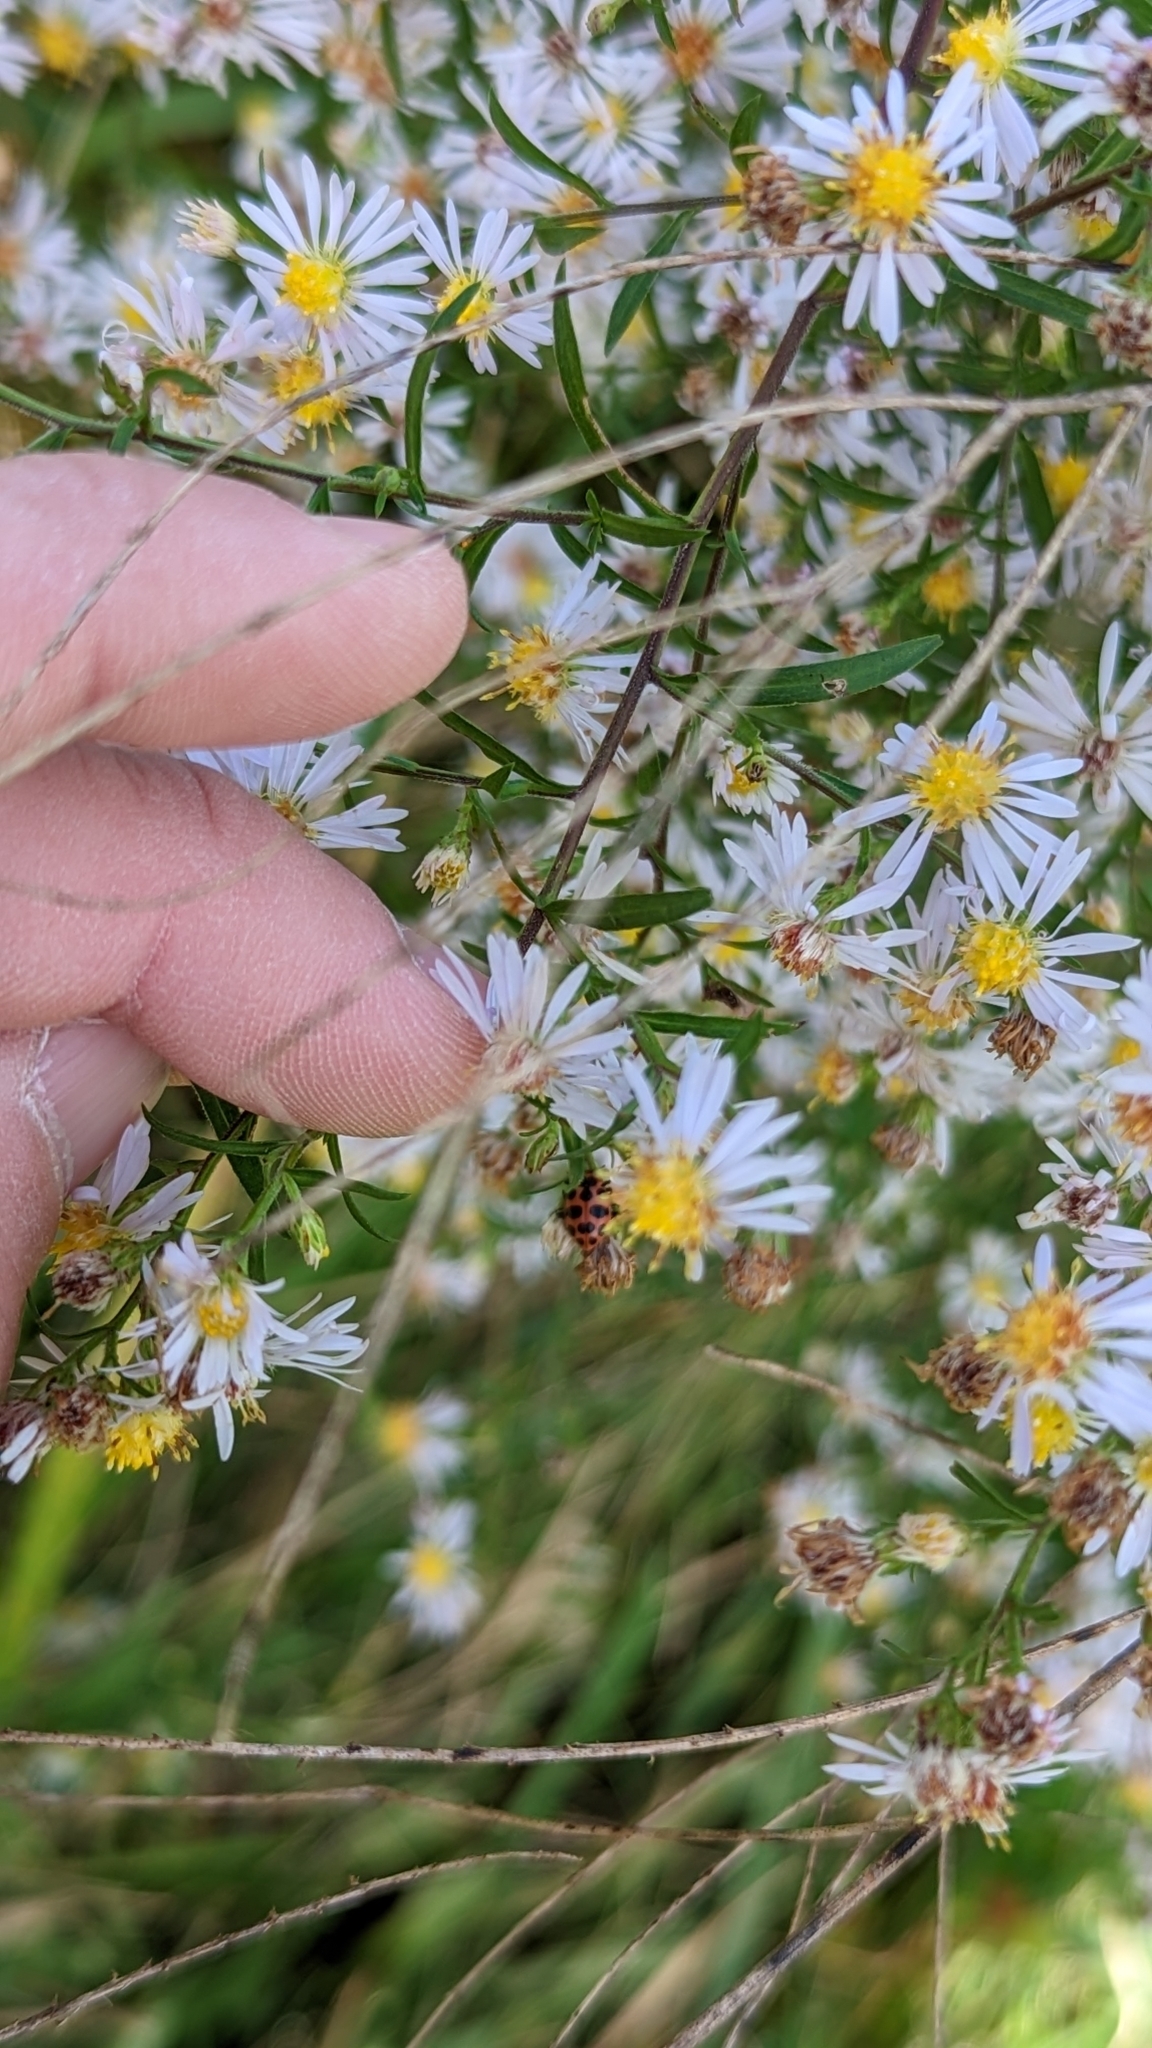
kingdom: Animalia
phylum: Arthropoda
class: Insecta
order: Coleoptera
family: Coccinellidae
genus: Coleomegilla
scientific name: Coleomegilla maculata
